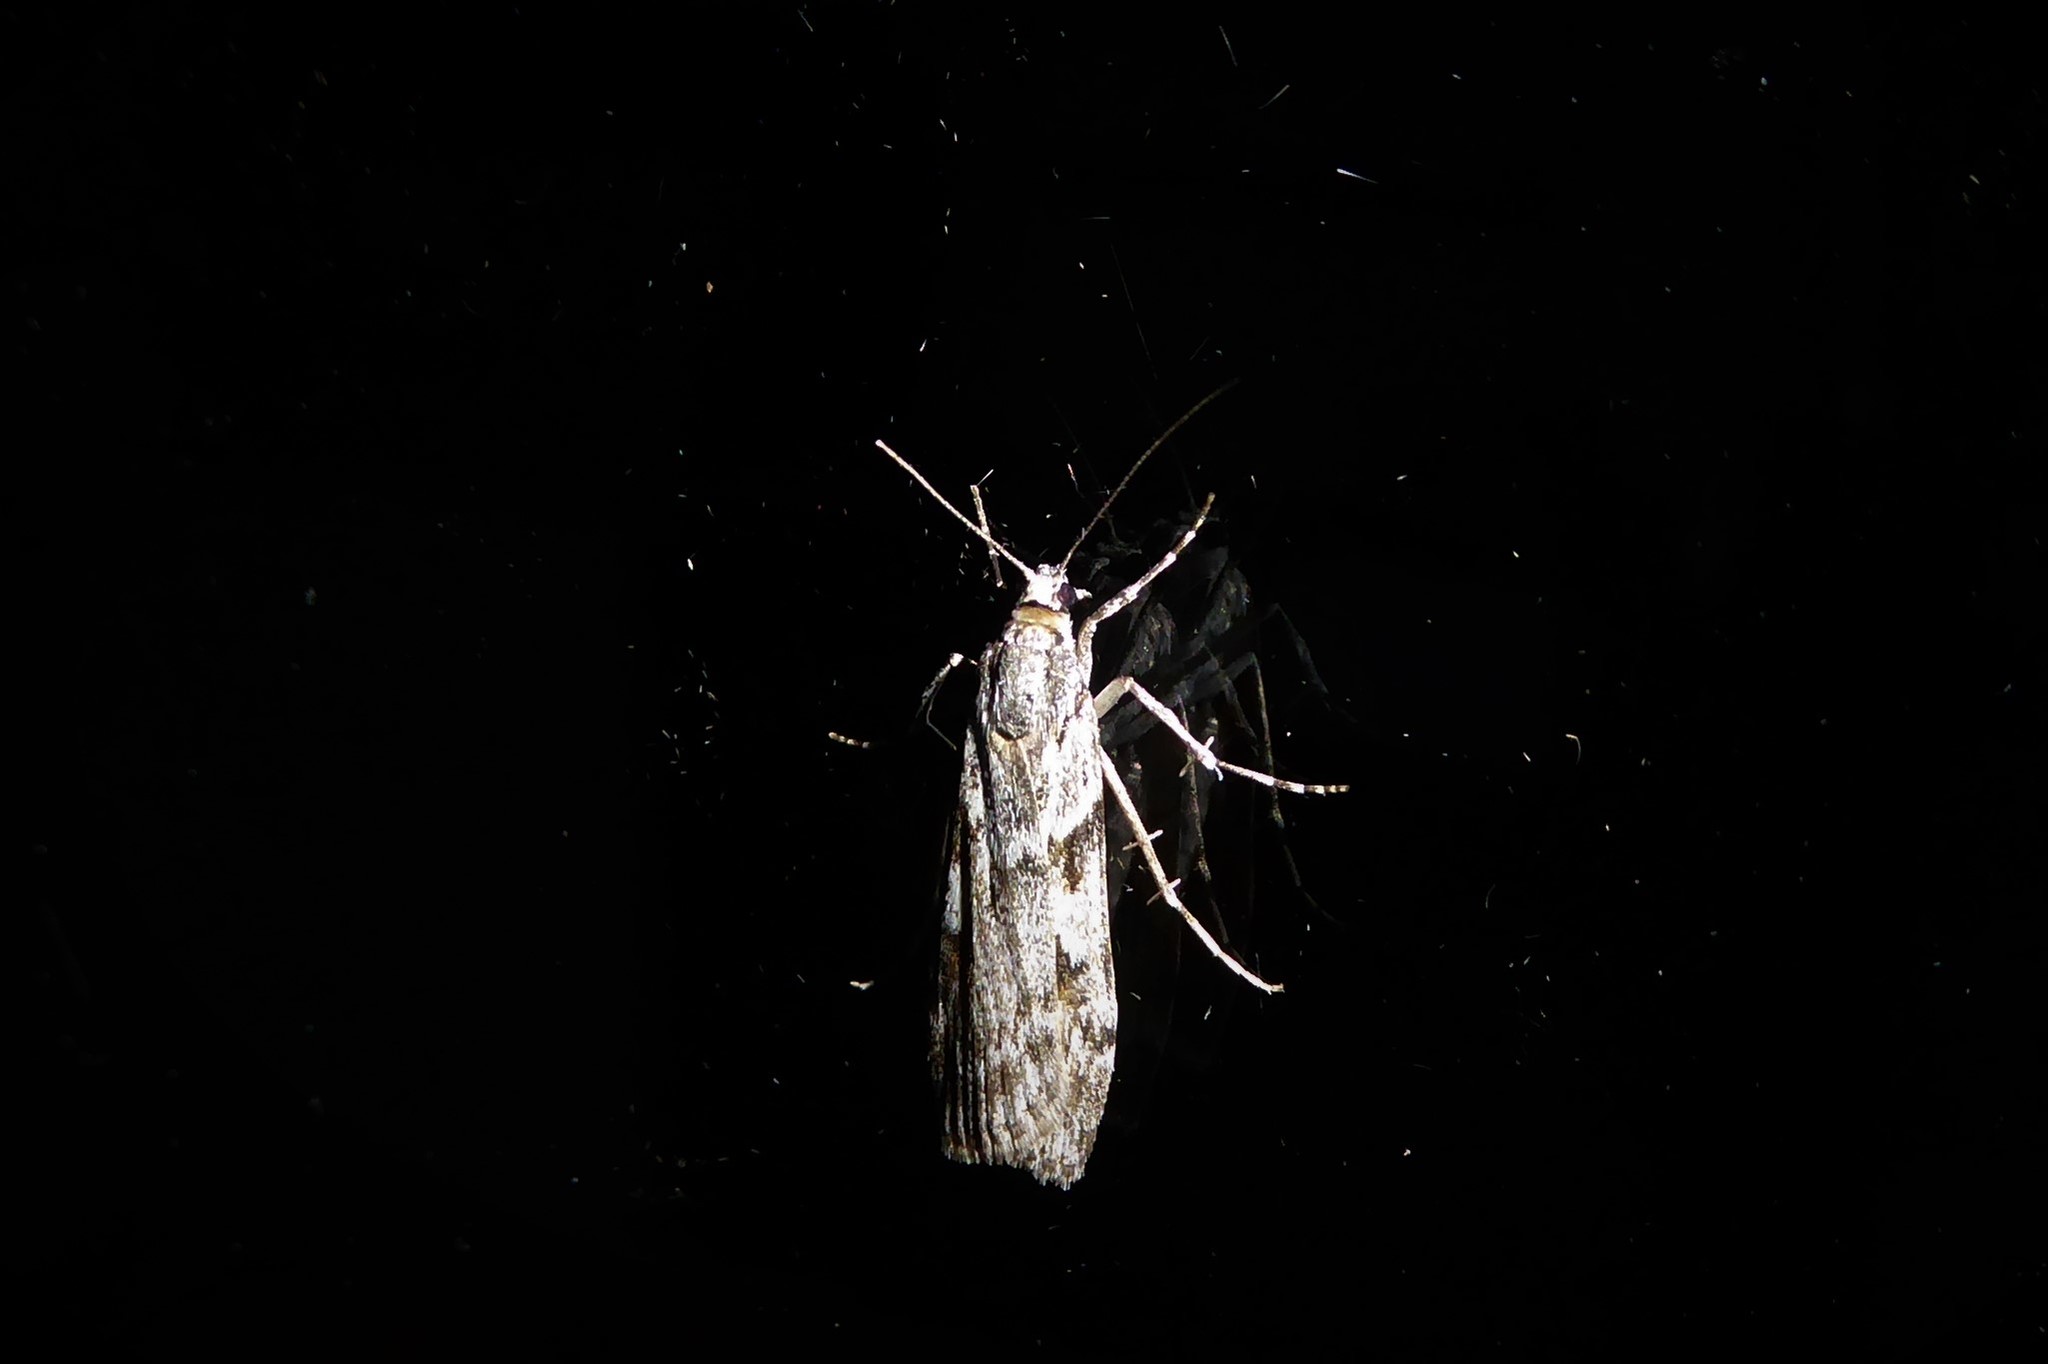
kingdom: Animalia
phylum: Arthropoda
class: Insecta
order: Lepidoptera
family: Crambidae
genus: Scoparia
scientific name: Scoparia halopis
